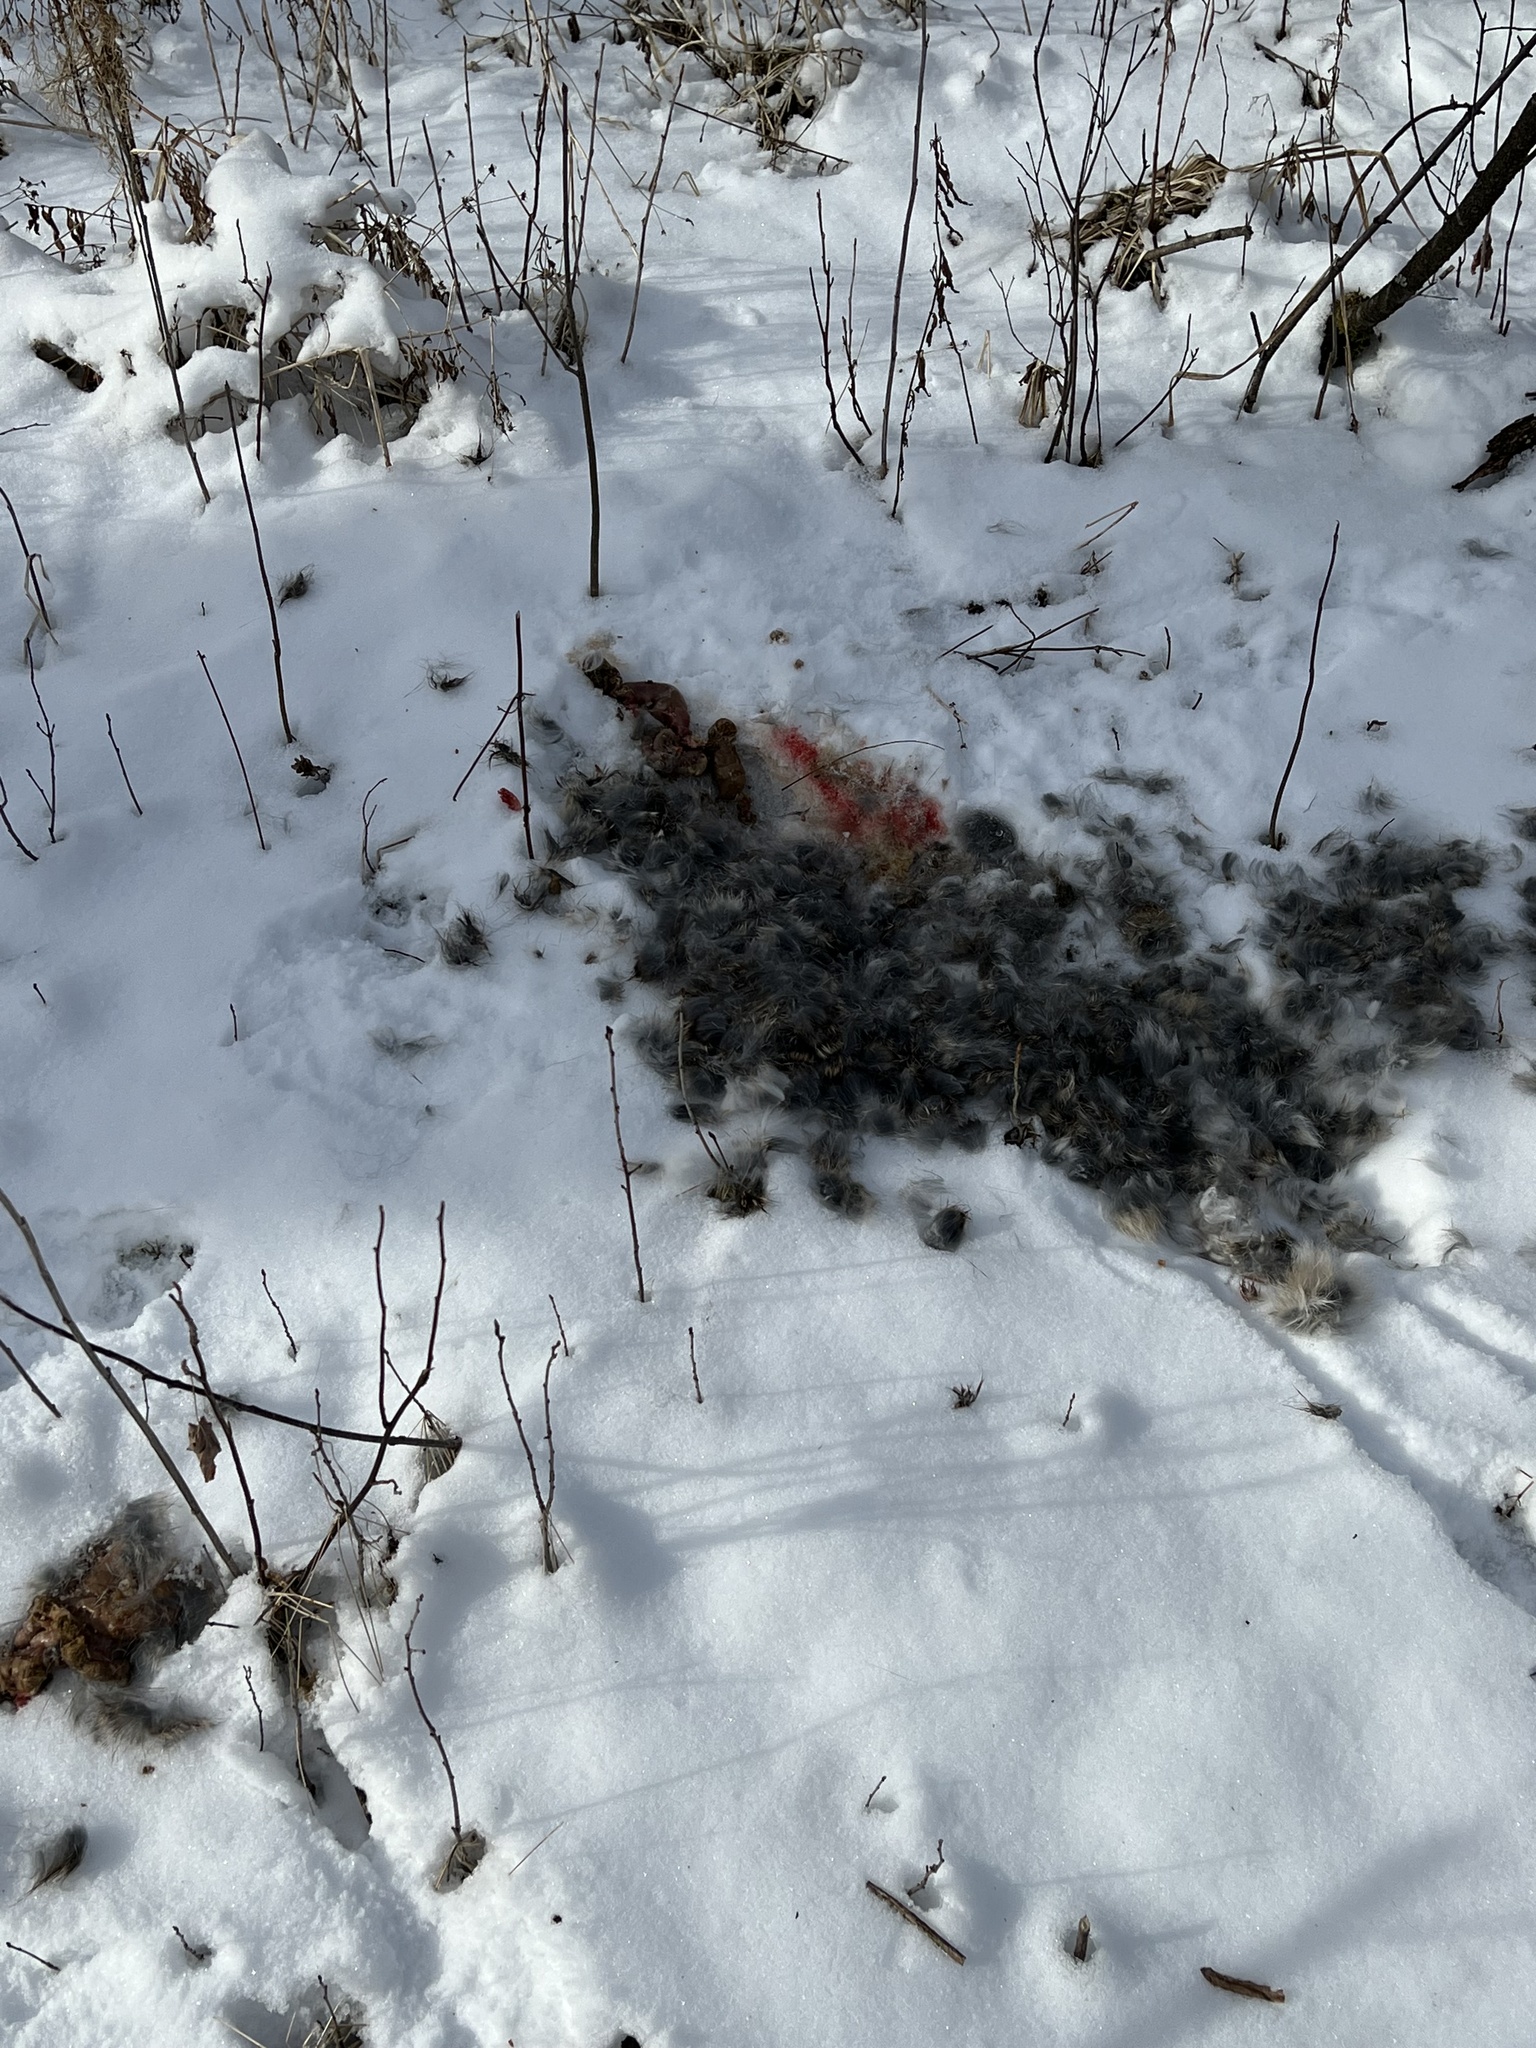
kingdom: Animalia
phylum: Chordata
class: Mammalia
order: Carnivora
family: Felidae
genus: Felis
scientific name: Felis catus
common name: Domestic cat
